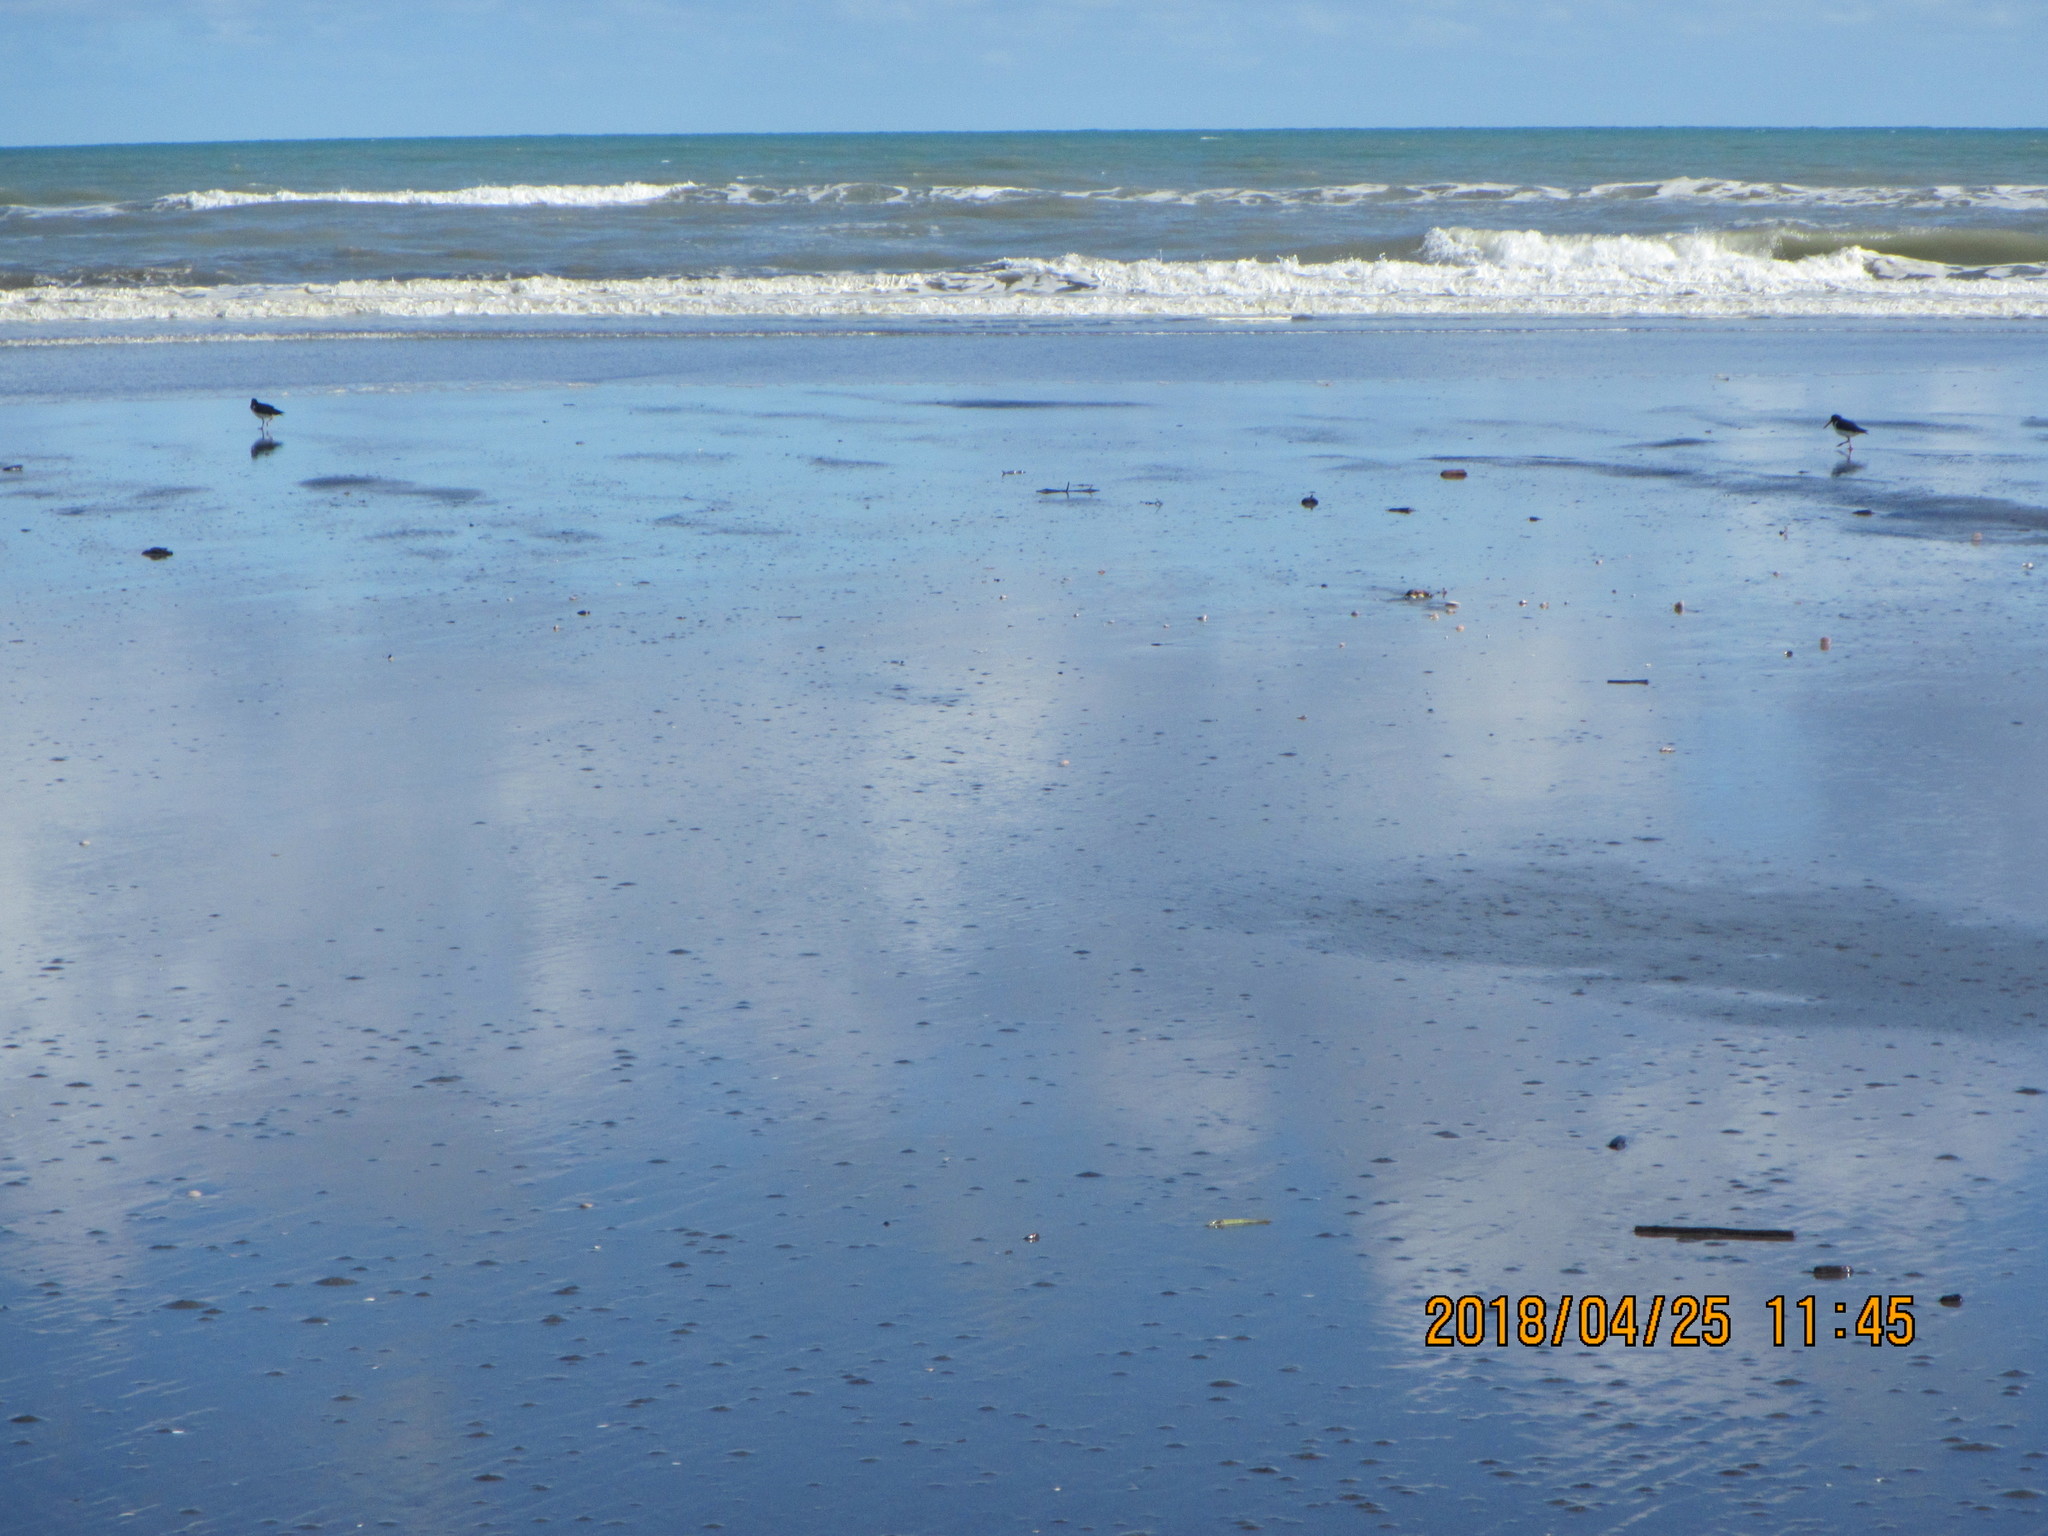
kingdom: Animalia
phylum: Chordata
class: Aves
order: Charadriiformes
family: Haematopodidae
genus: Haematopus
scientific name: Haematopus finschi
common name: South island oystercatcher
